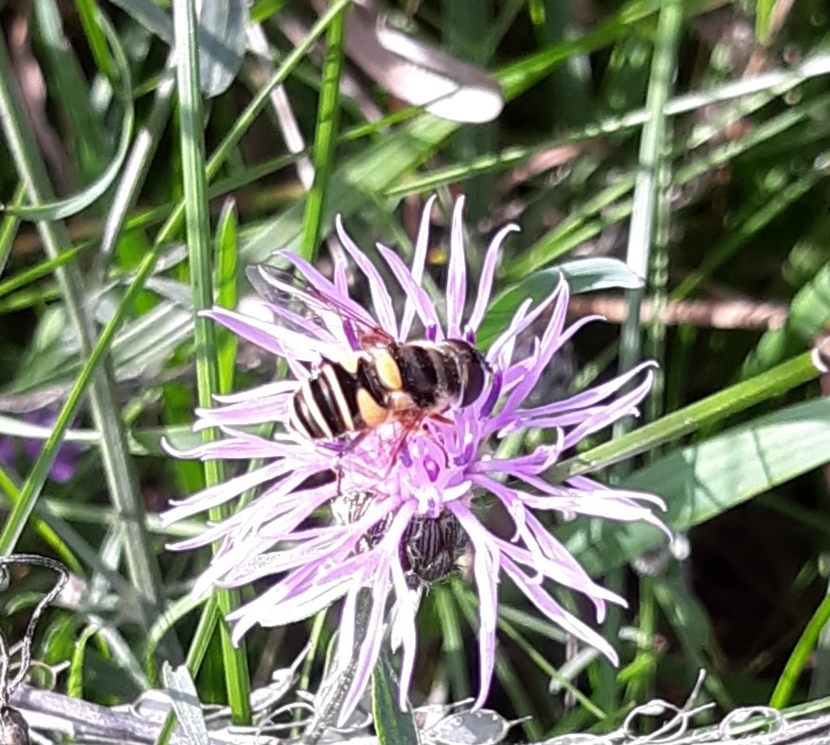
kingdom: Animalia
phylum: Arthropoda
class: Insecta
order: Diptera
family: Syrphidae
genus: Eristalis
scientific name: Eristalis transversa
